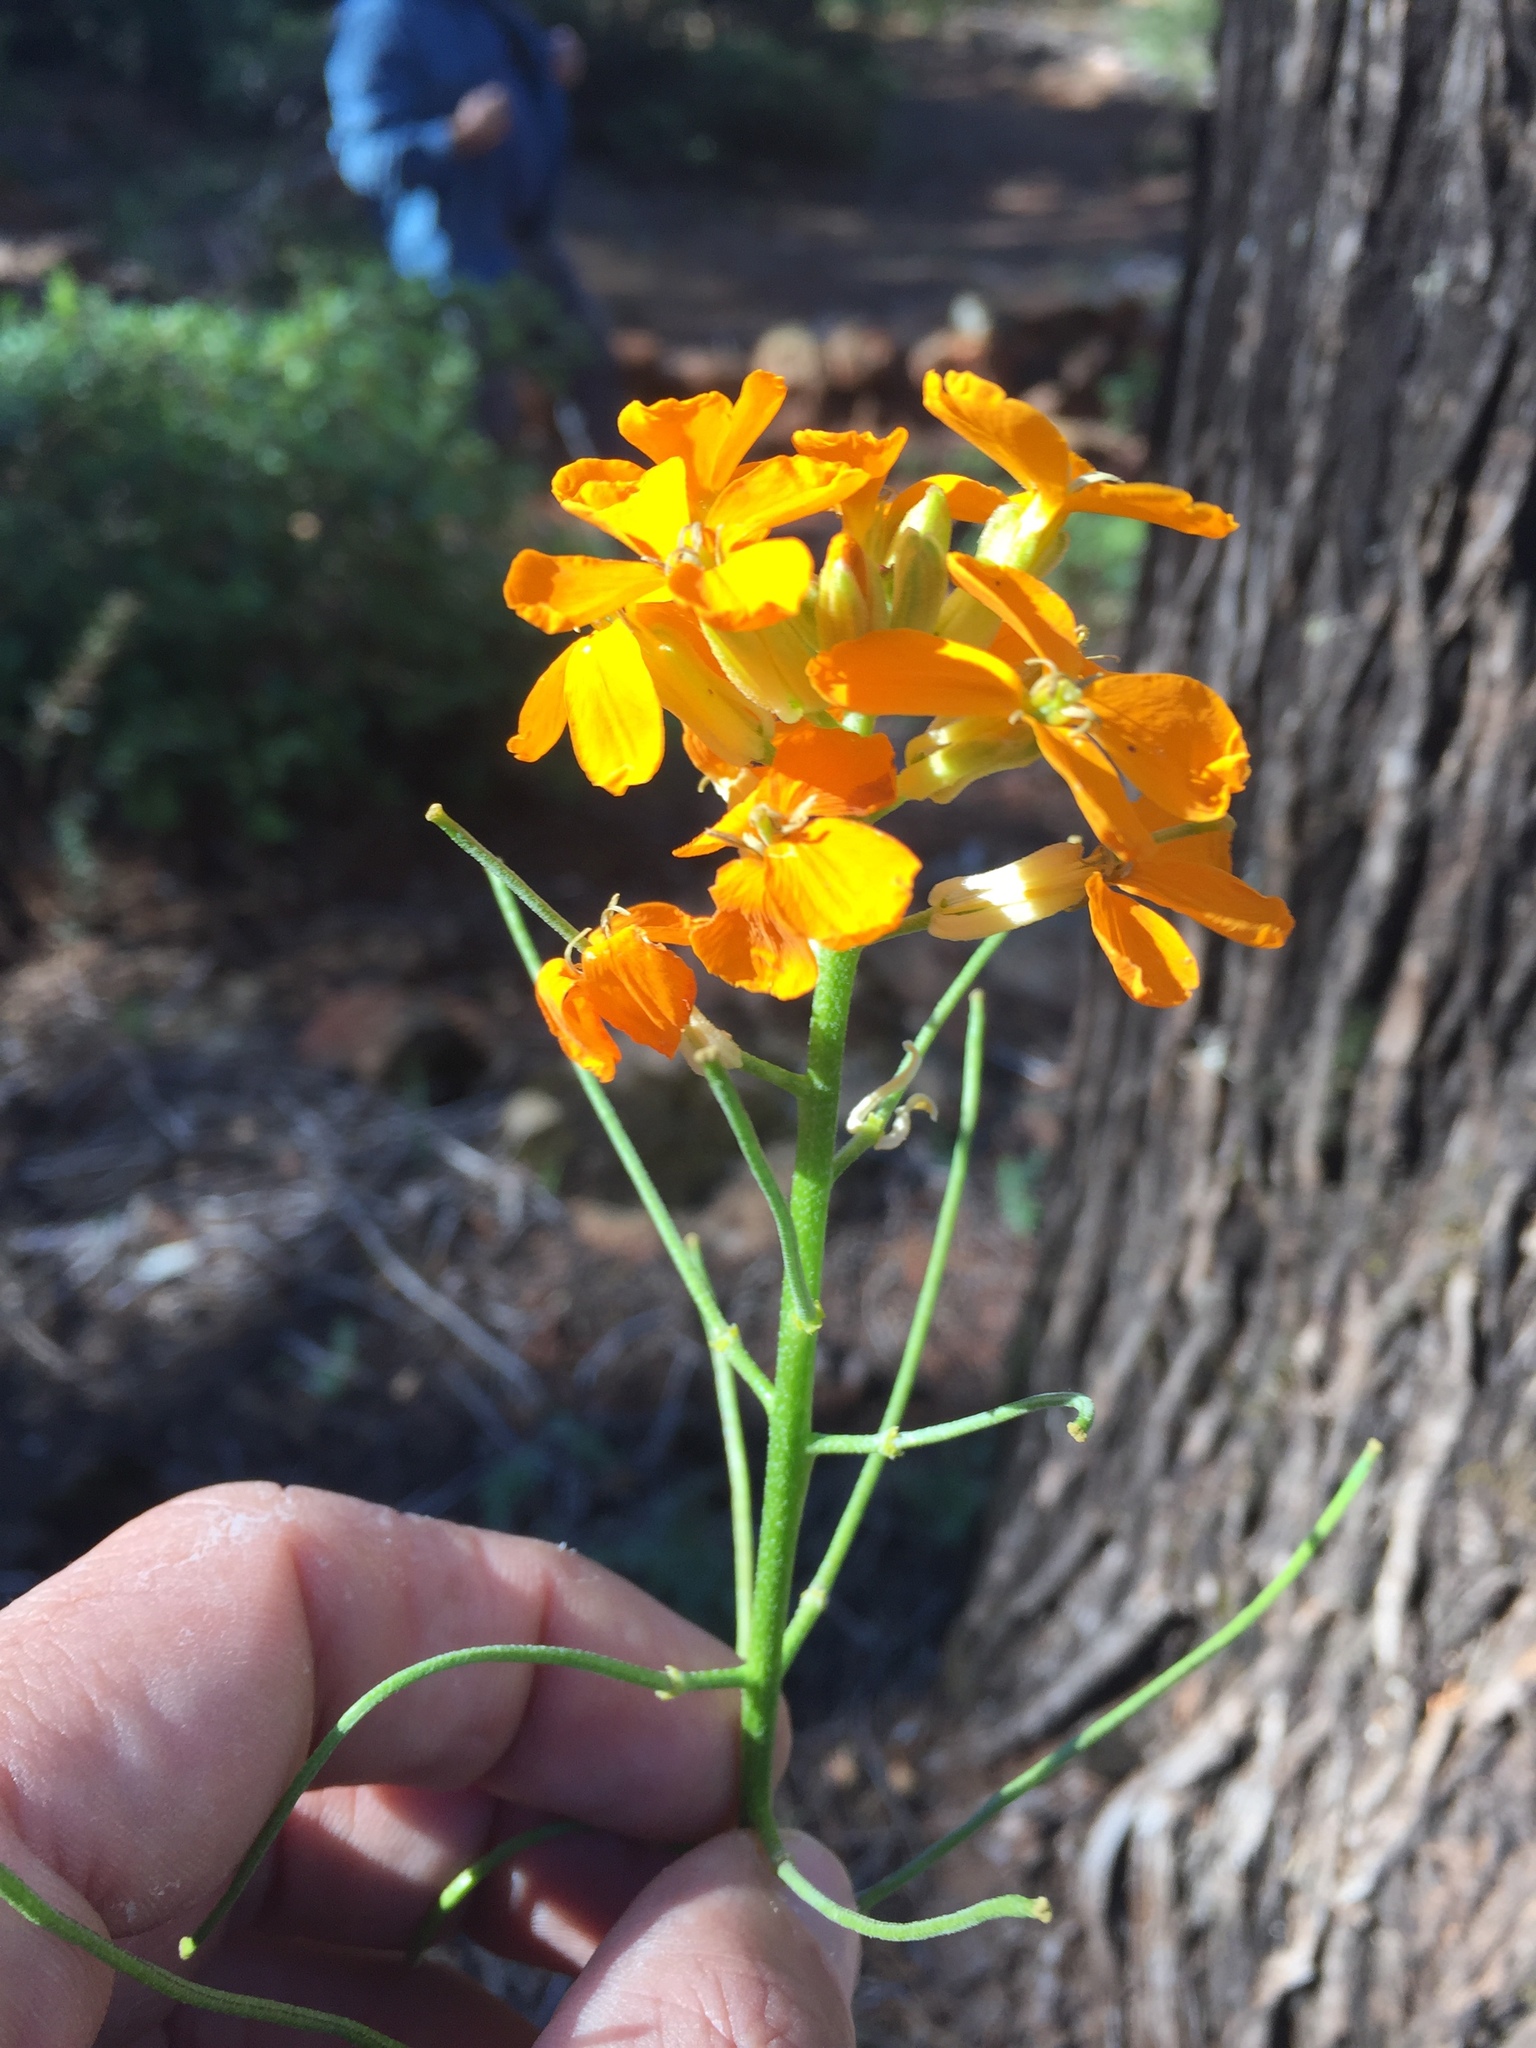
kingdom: Plantae
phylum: Tracheophyta
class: Magnoliopsida
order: Brassicales
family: Brassicaceae
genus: Erysimum
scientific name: Erysimum capitatum
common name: Western wallflower
